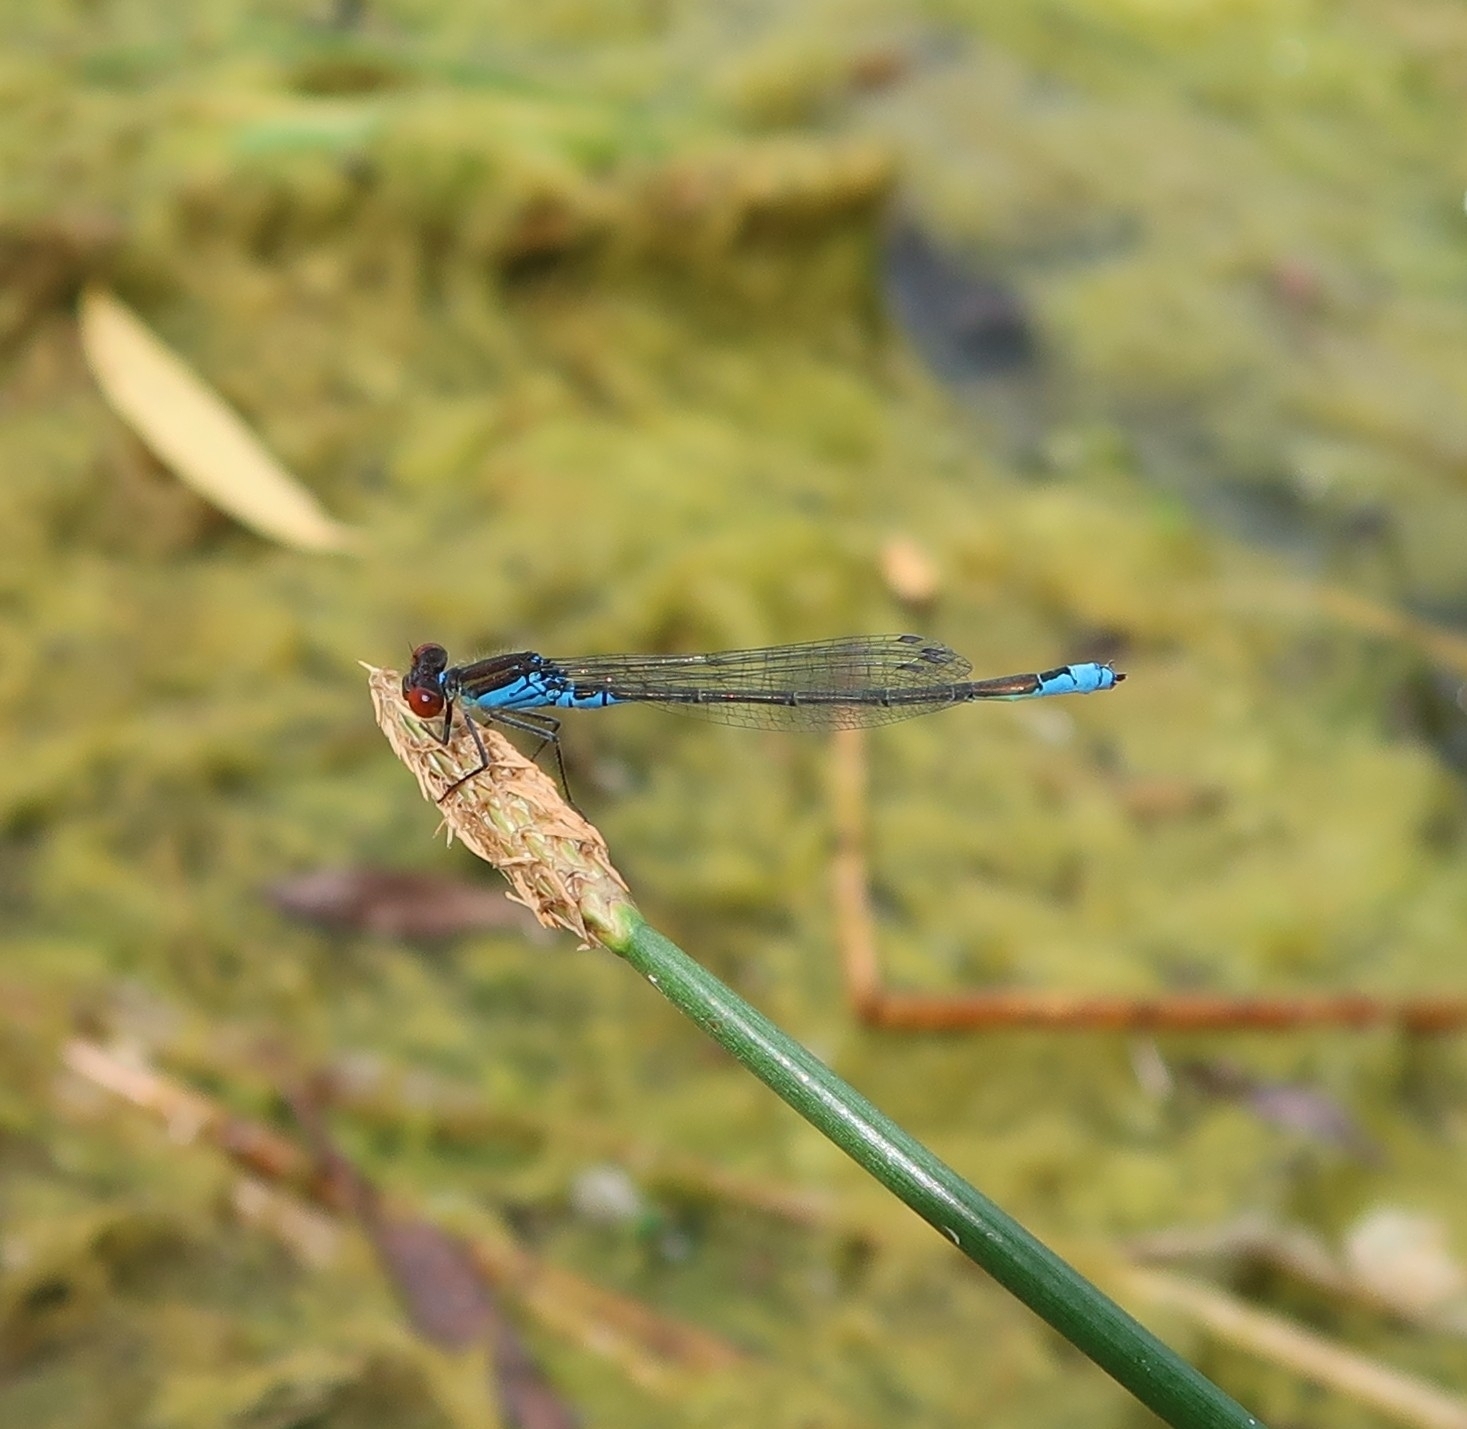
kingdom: Animalia
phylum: Arthropoda
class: Insecta
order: Odonata
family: Coenagrionidae
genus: Erythromma
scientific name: Erythromma viridulum
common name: Small red-eyed damselfly
